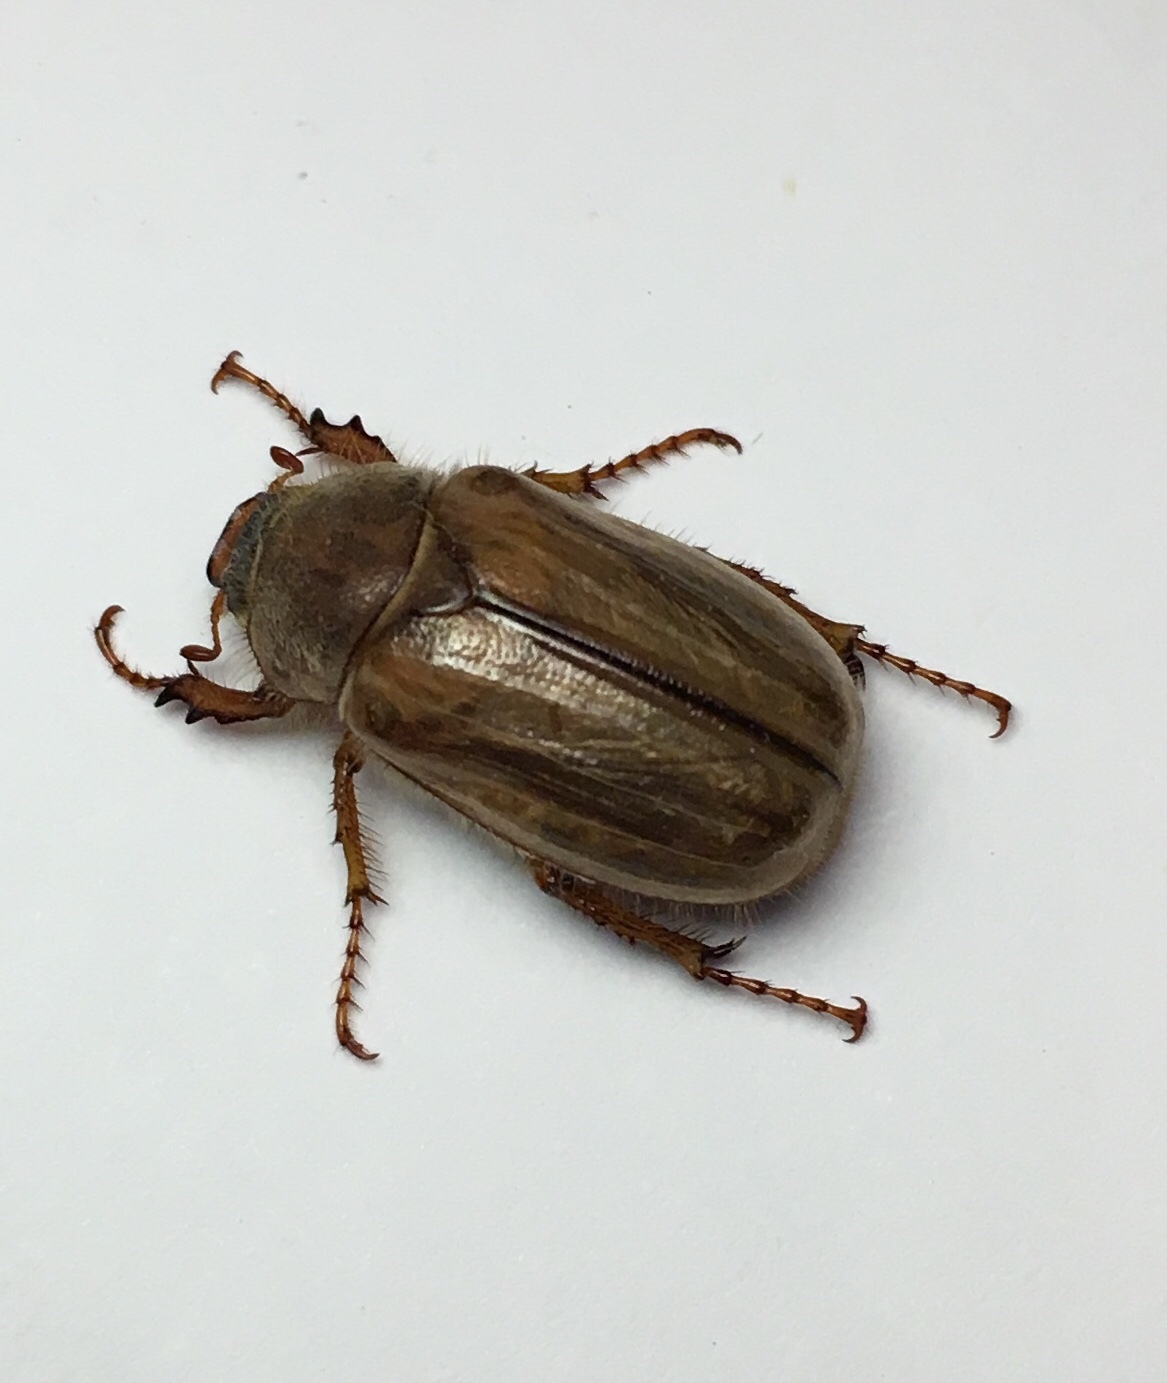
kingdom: Animalia
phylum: Arthropoda
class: Insecta
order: Coleoptera
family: Scarabaeidae
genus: Amphimallon
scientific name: Amphimallon solstitiale
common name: Summer chafer
